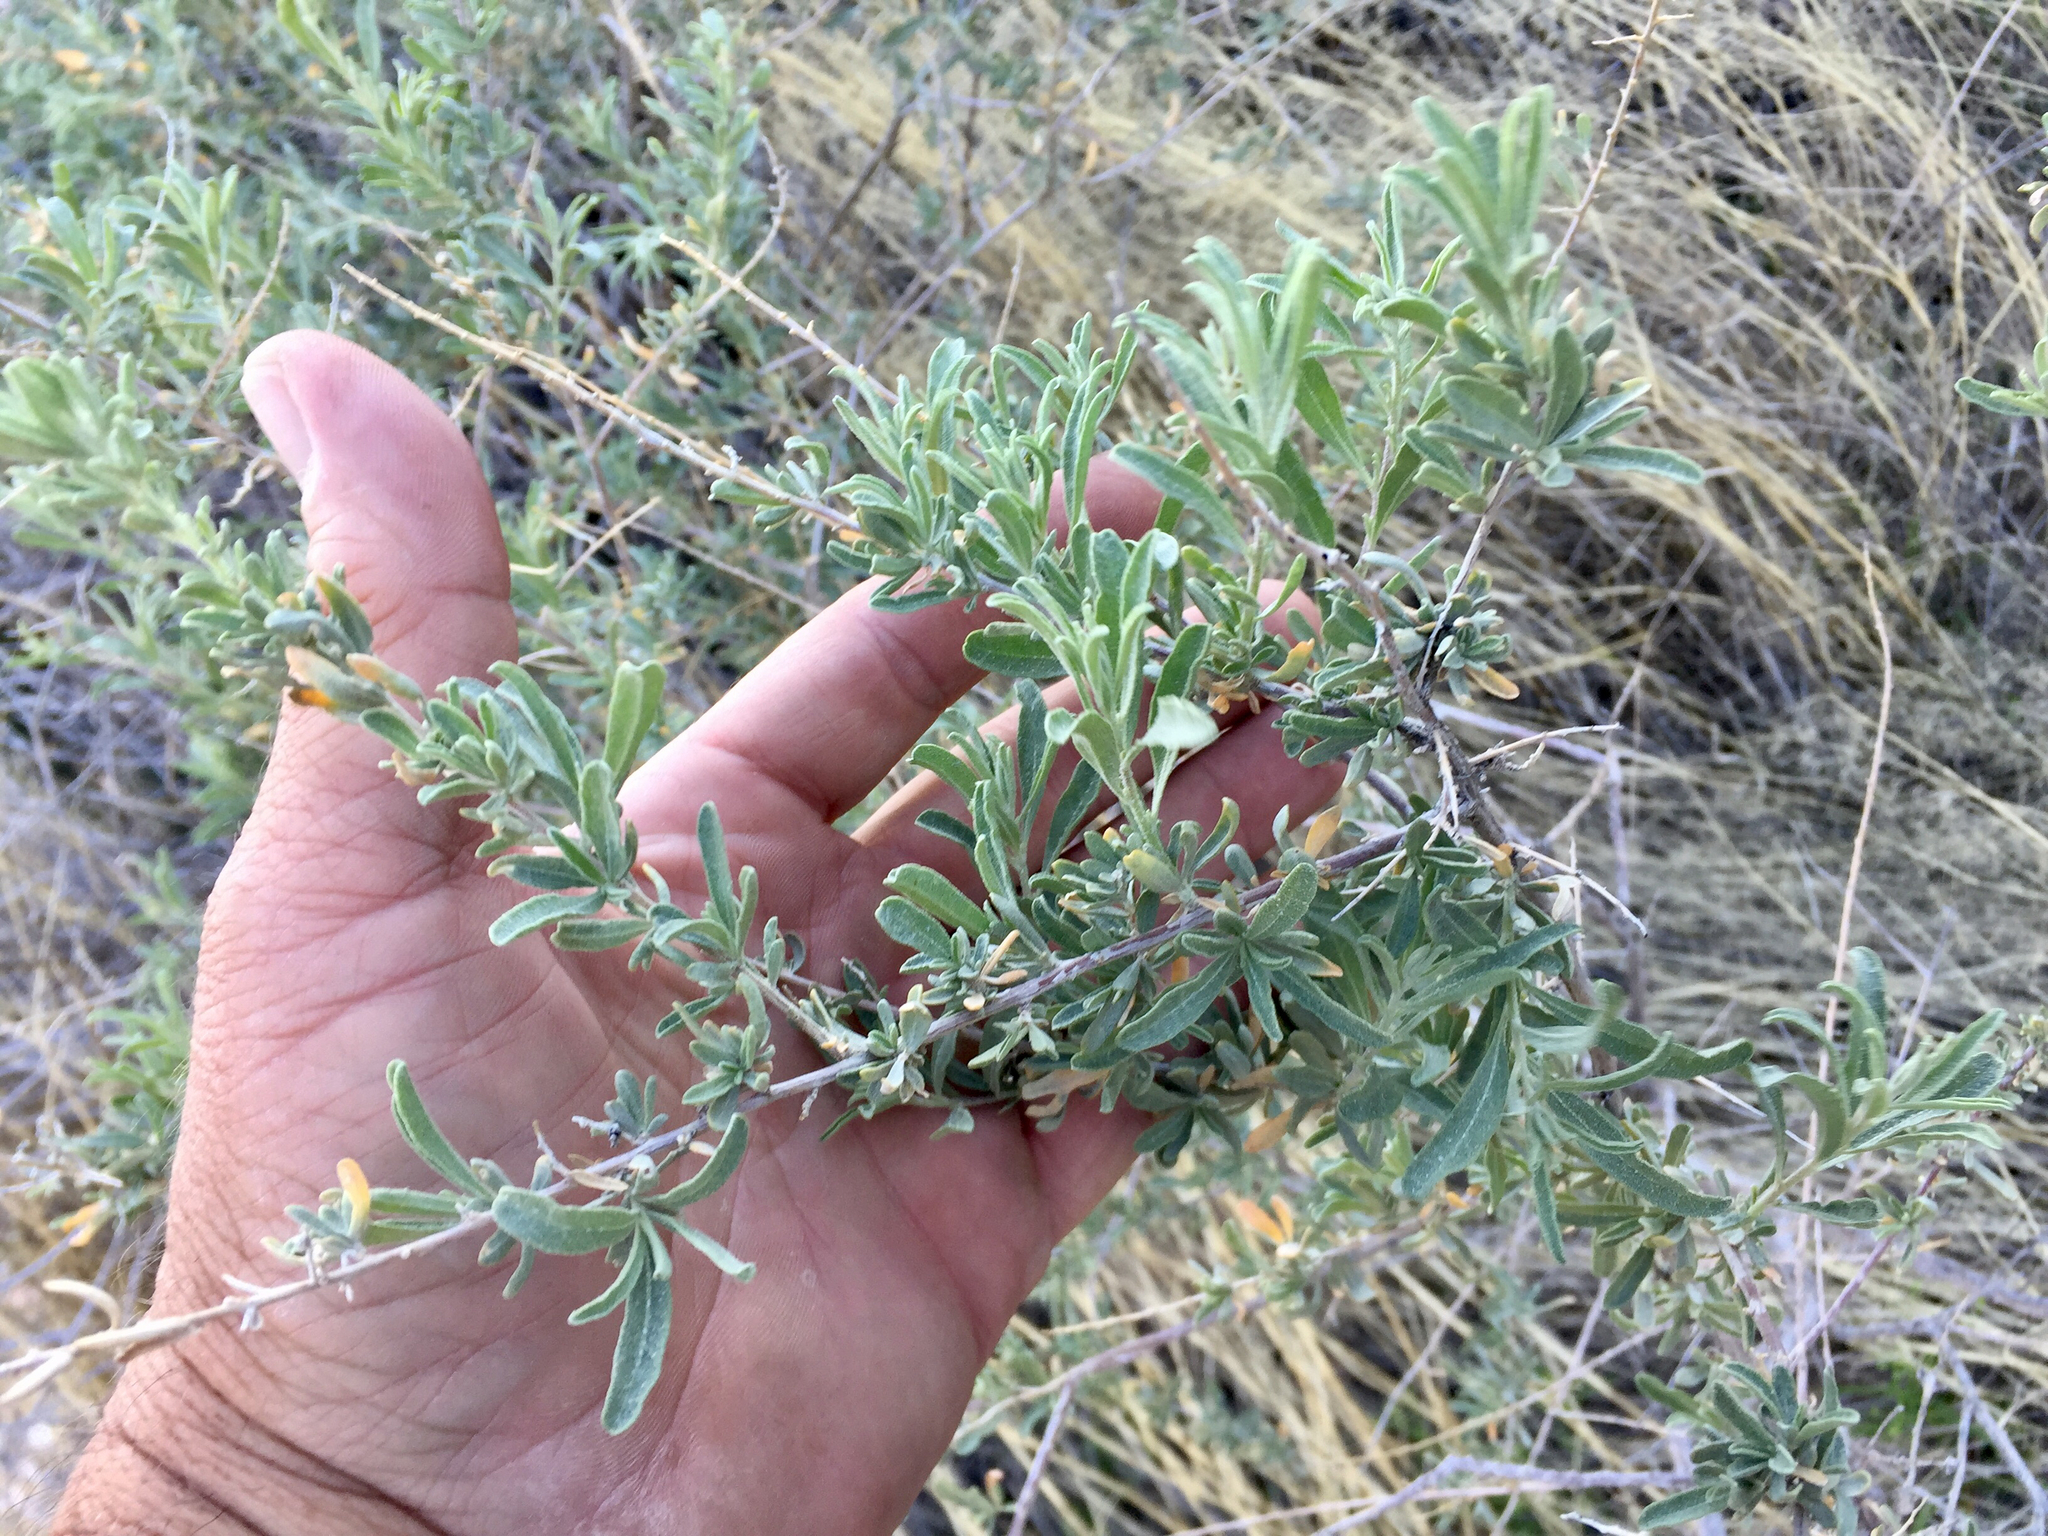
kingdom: Plantae
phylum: Tracheophyta
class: Magnoliopsida
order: Caryophyllales
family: Amaranthaceae
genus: Atriplex
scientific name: Atriplex canescens
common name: Four-wing saltbush
